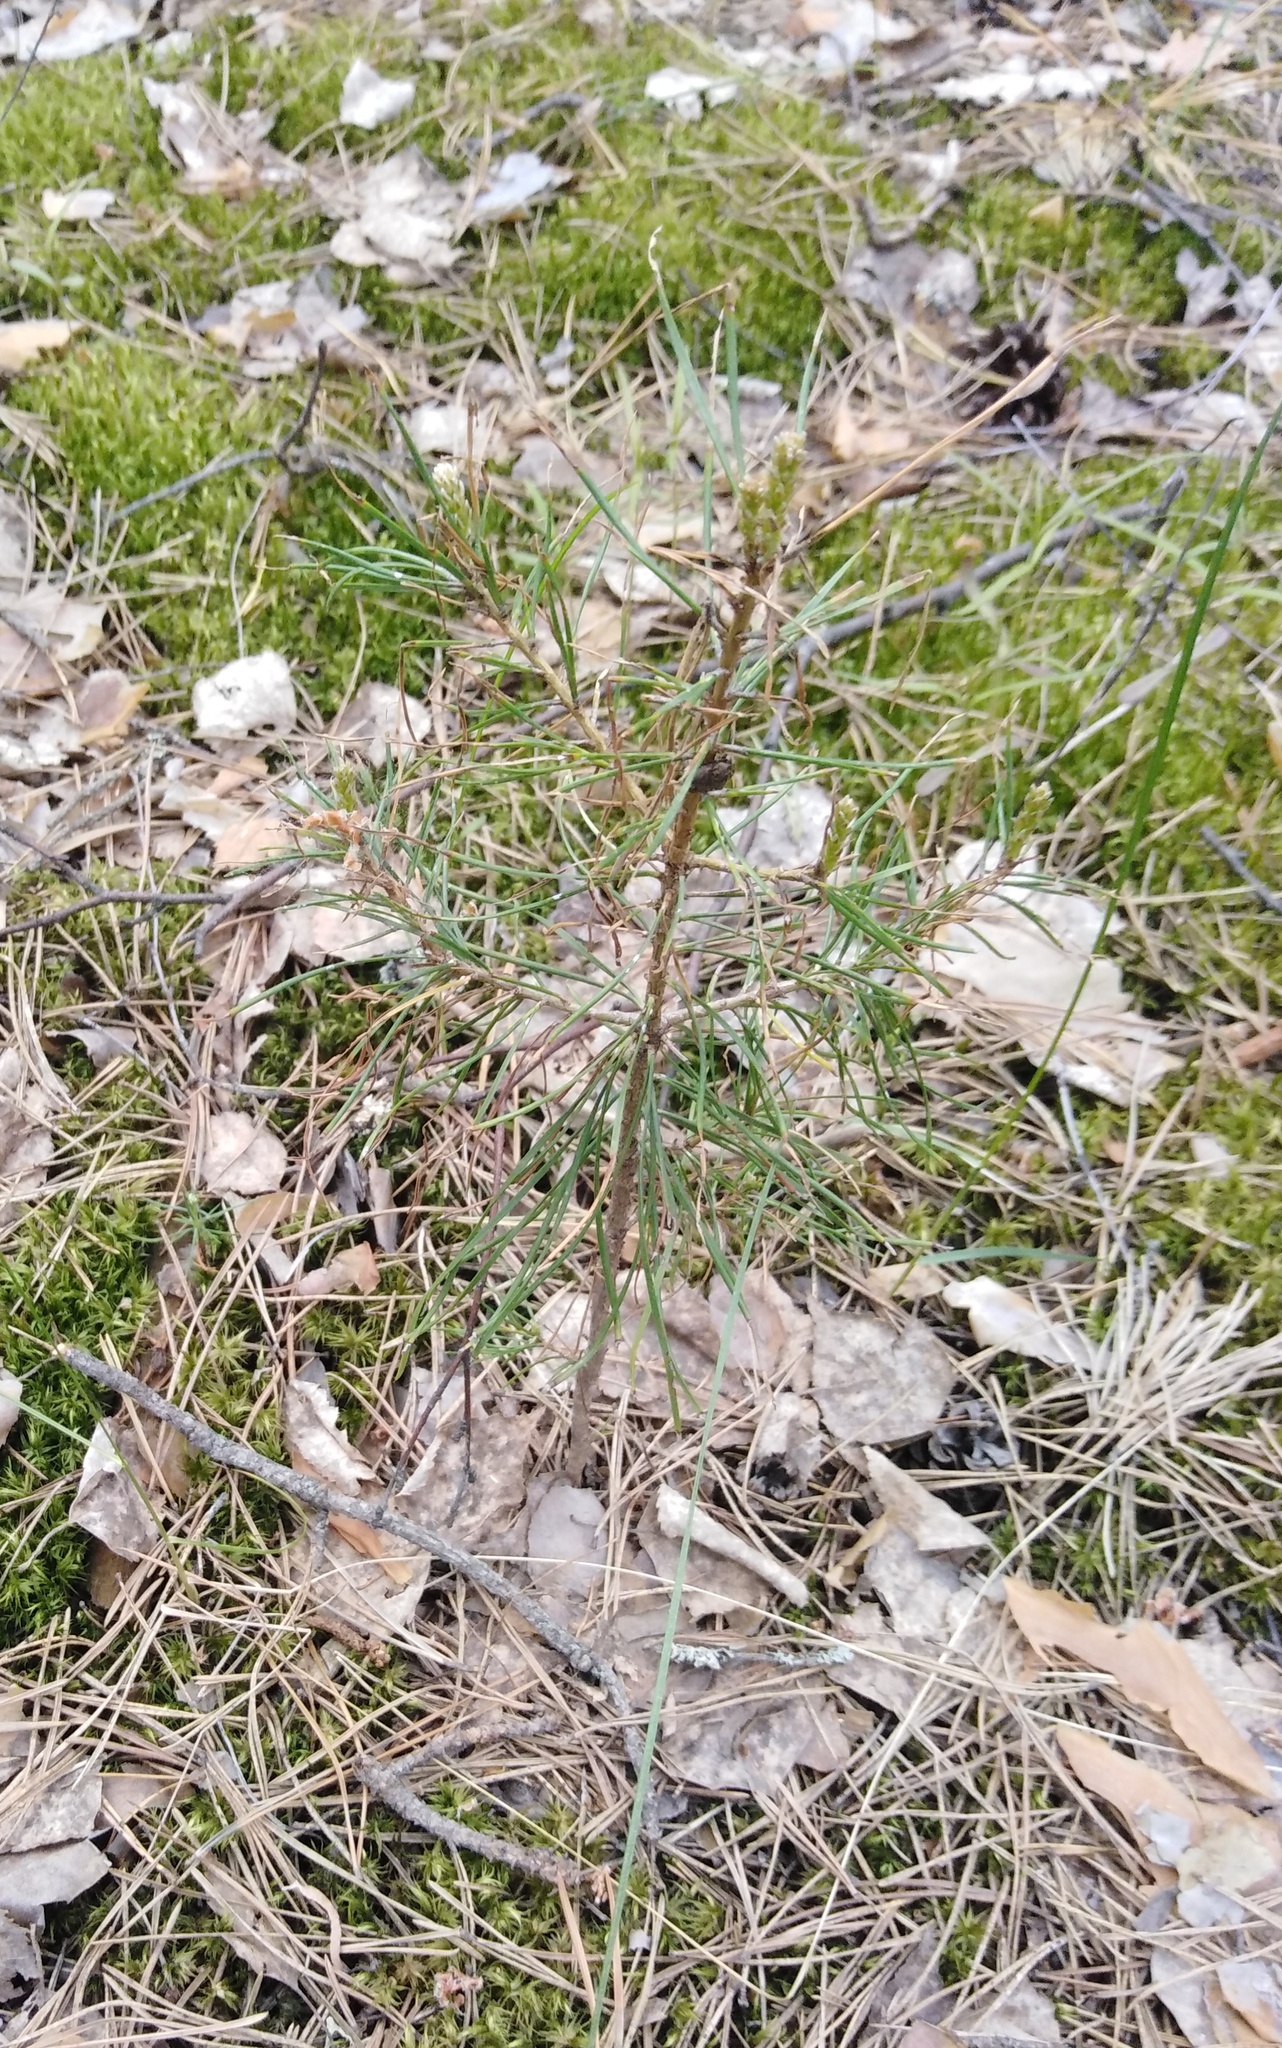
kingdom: Plantae
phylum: Tracheophyta
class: Pinopsida
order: Pinales
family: Pinaceae
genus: Pinus
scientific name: Pinus sylvestris
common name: Scots pine
